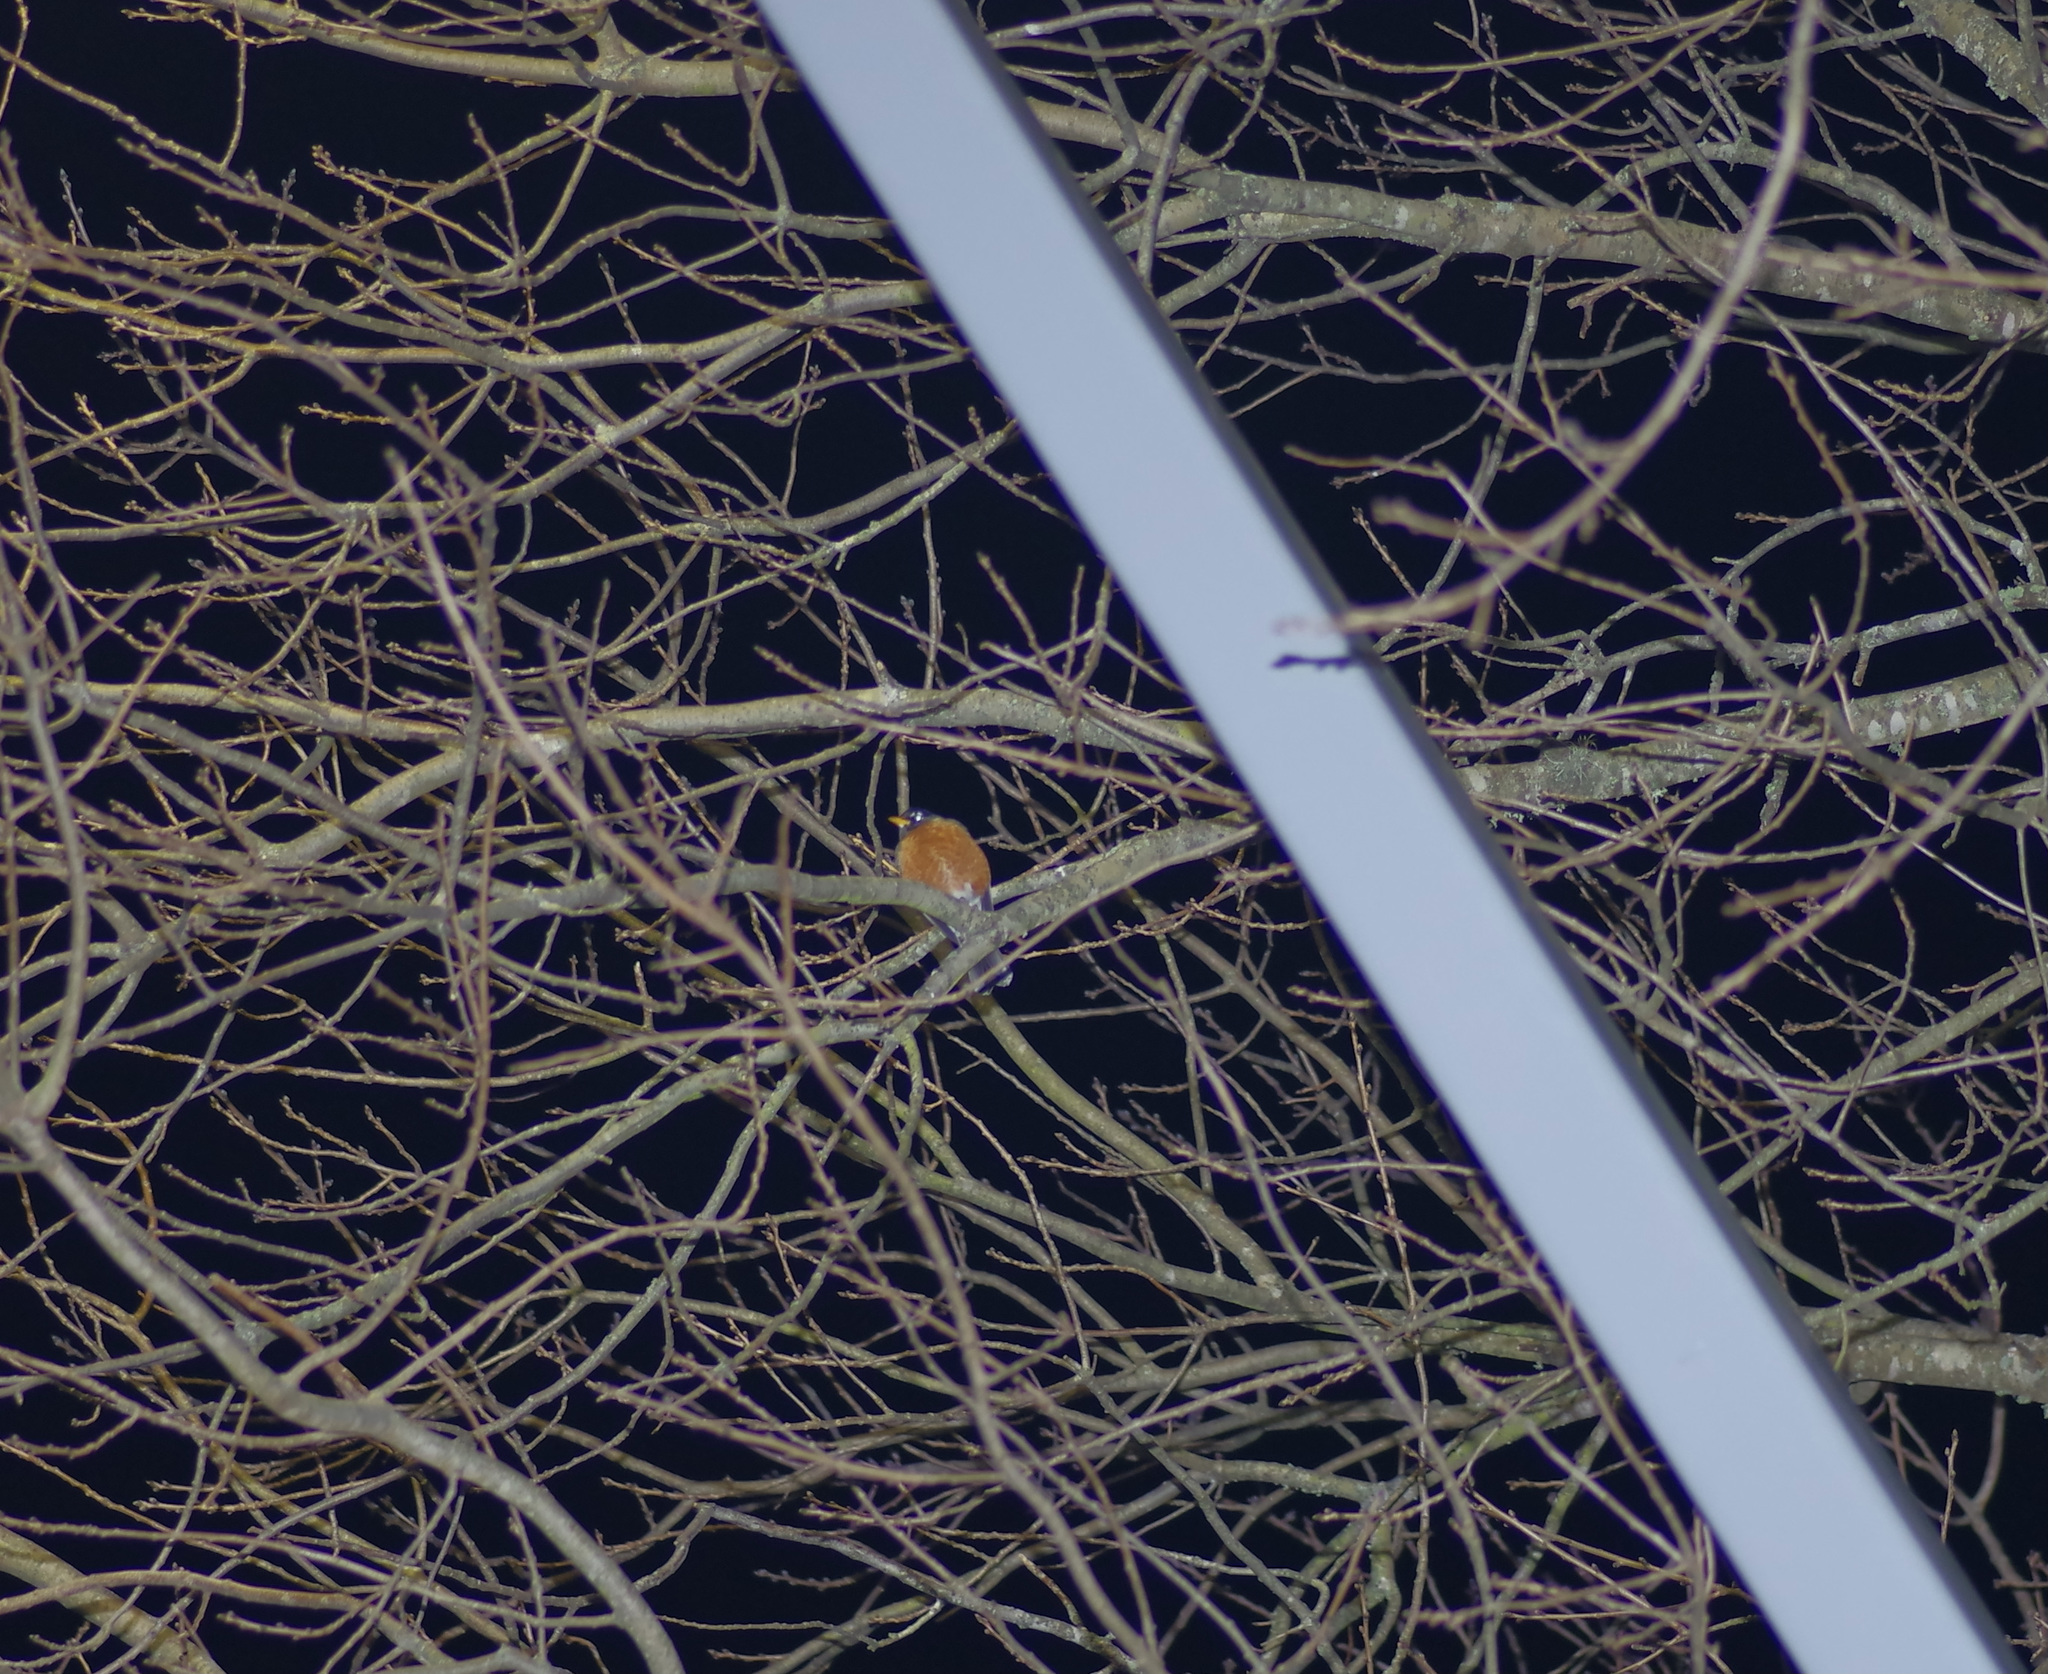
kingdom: Animalia
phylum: Chordata
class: Aves
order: Passeriformes
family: Turdidae
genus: Turdus
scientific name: Turdus migratorius
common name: American robin
